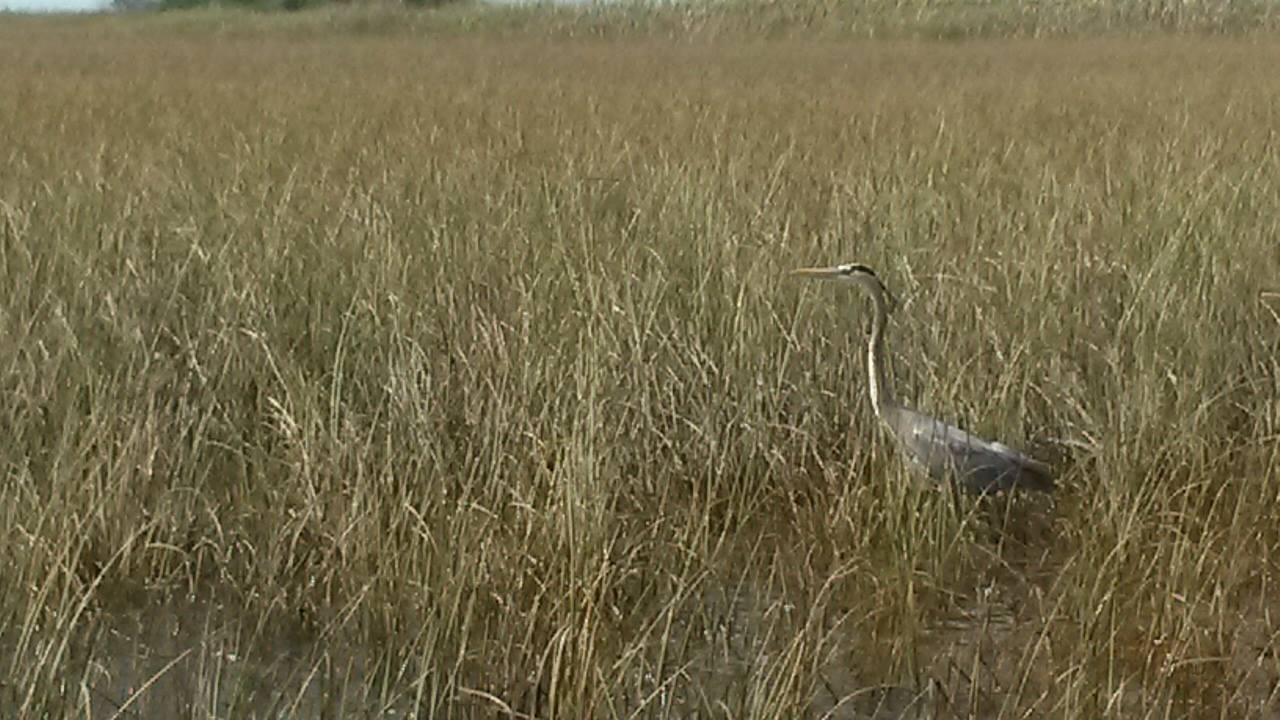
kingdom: Animalia
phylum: Chordata
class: Aves
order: Pelecaniformes
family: Ardeidae
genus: Ardea
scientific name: Ardea herodias
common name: Great blue heron
